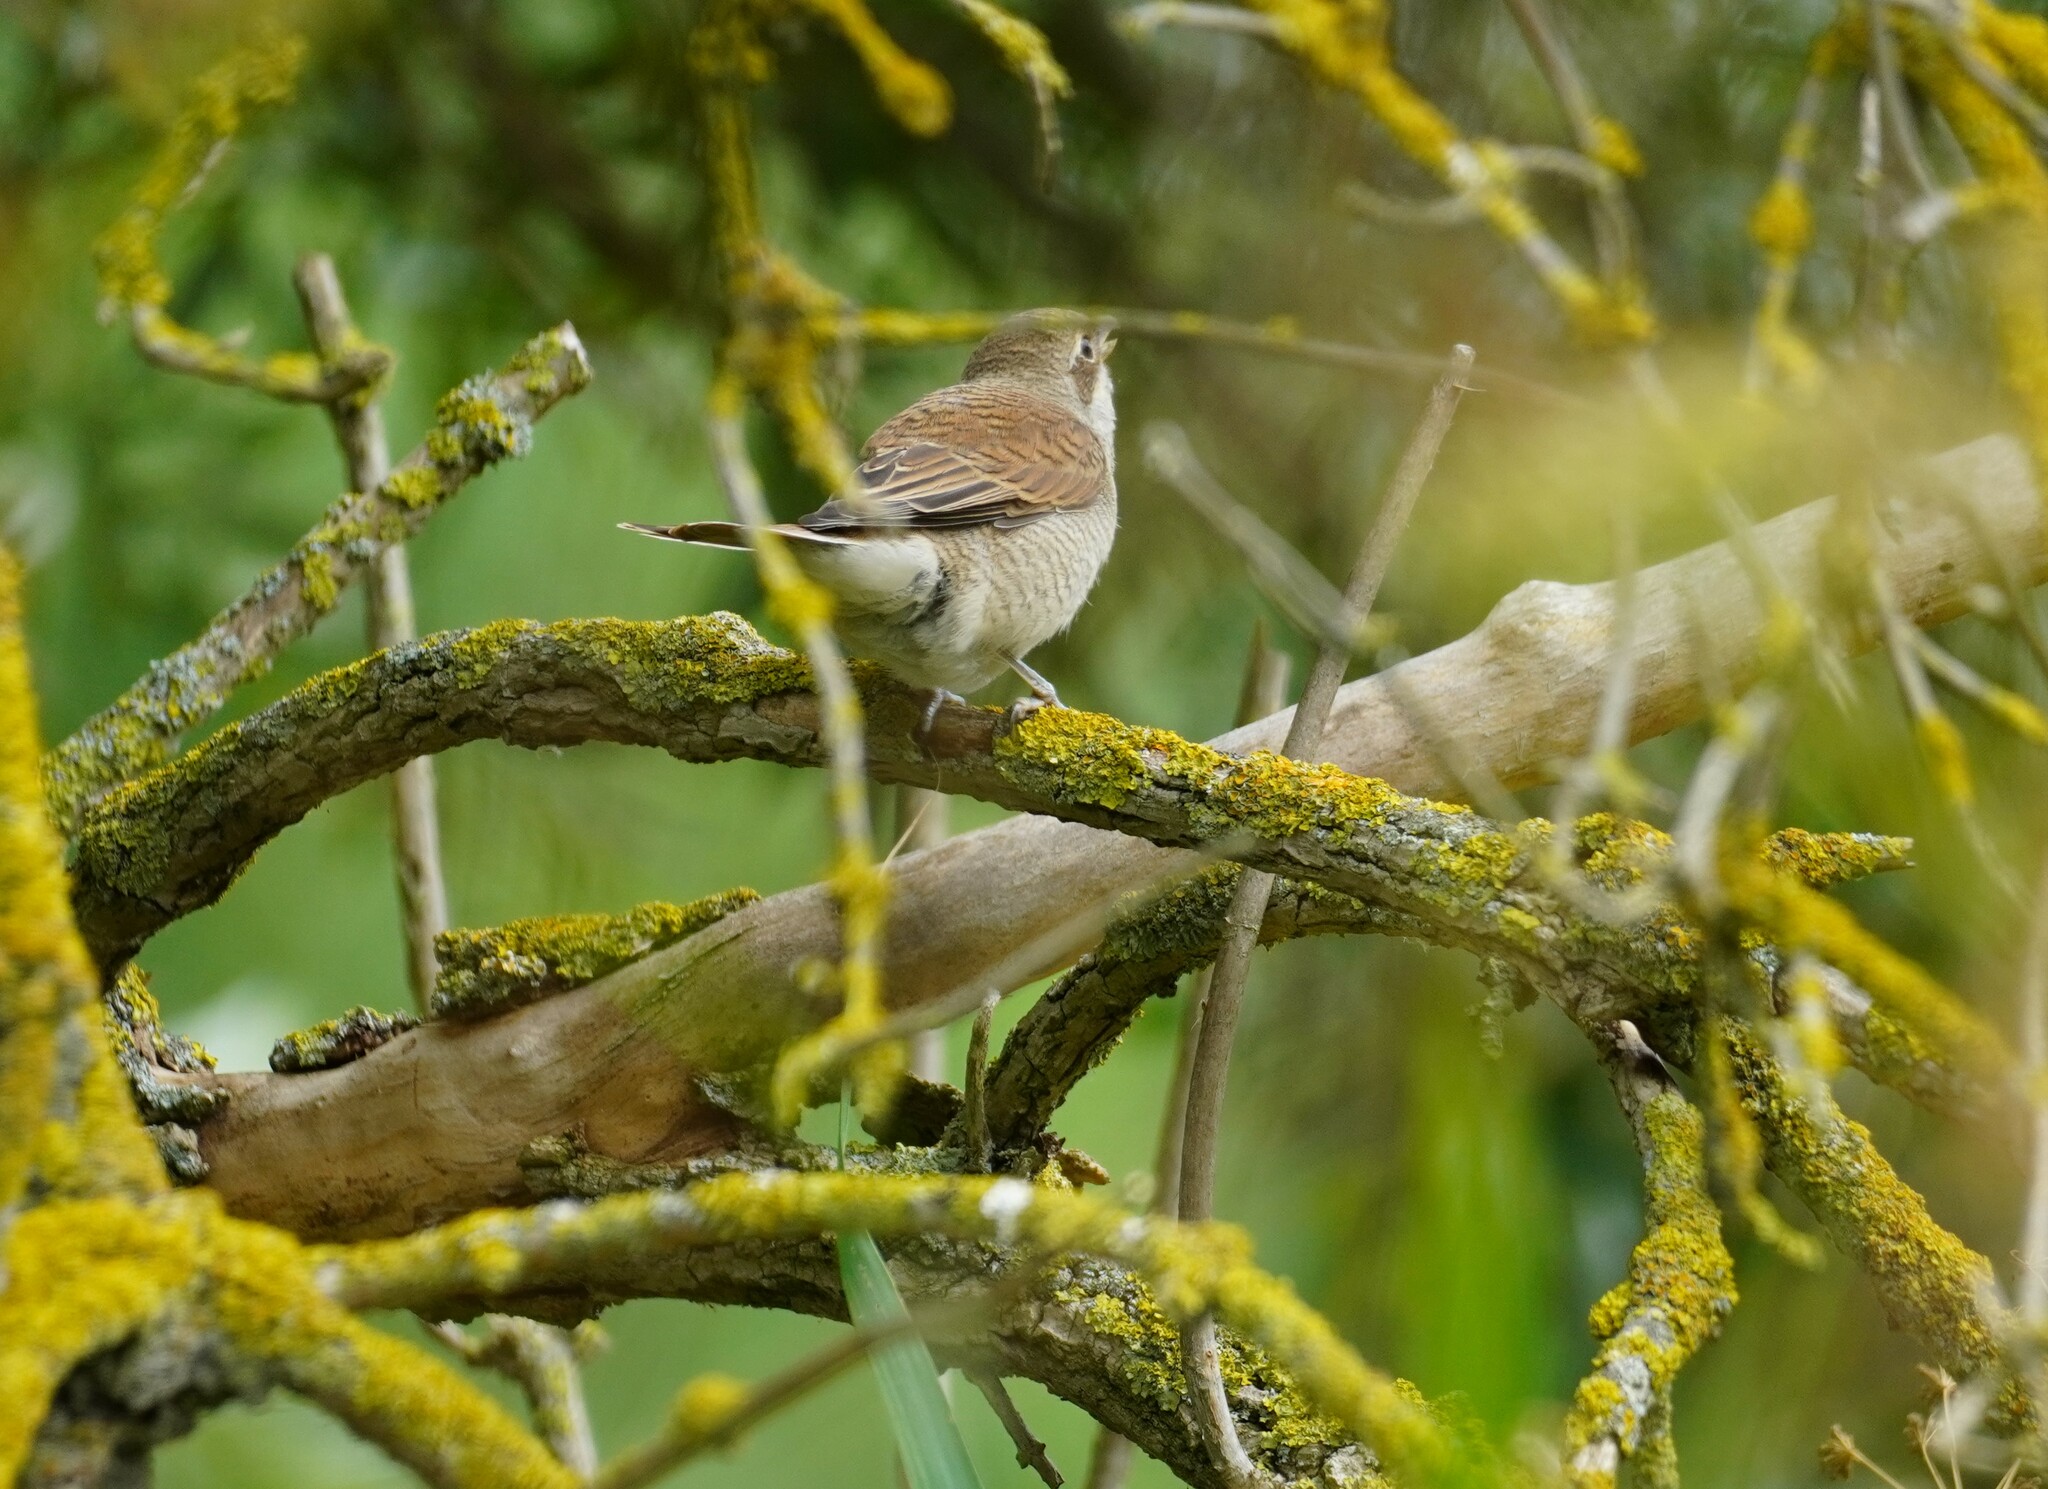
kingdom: Animalia
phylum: Chordata
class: Aves
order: Passeriformes
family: Laniidae
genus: Lanius
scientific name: Lanius collurio
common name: Red-backed shrike
